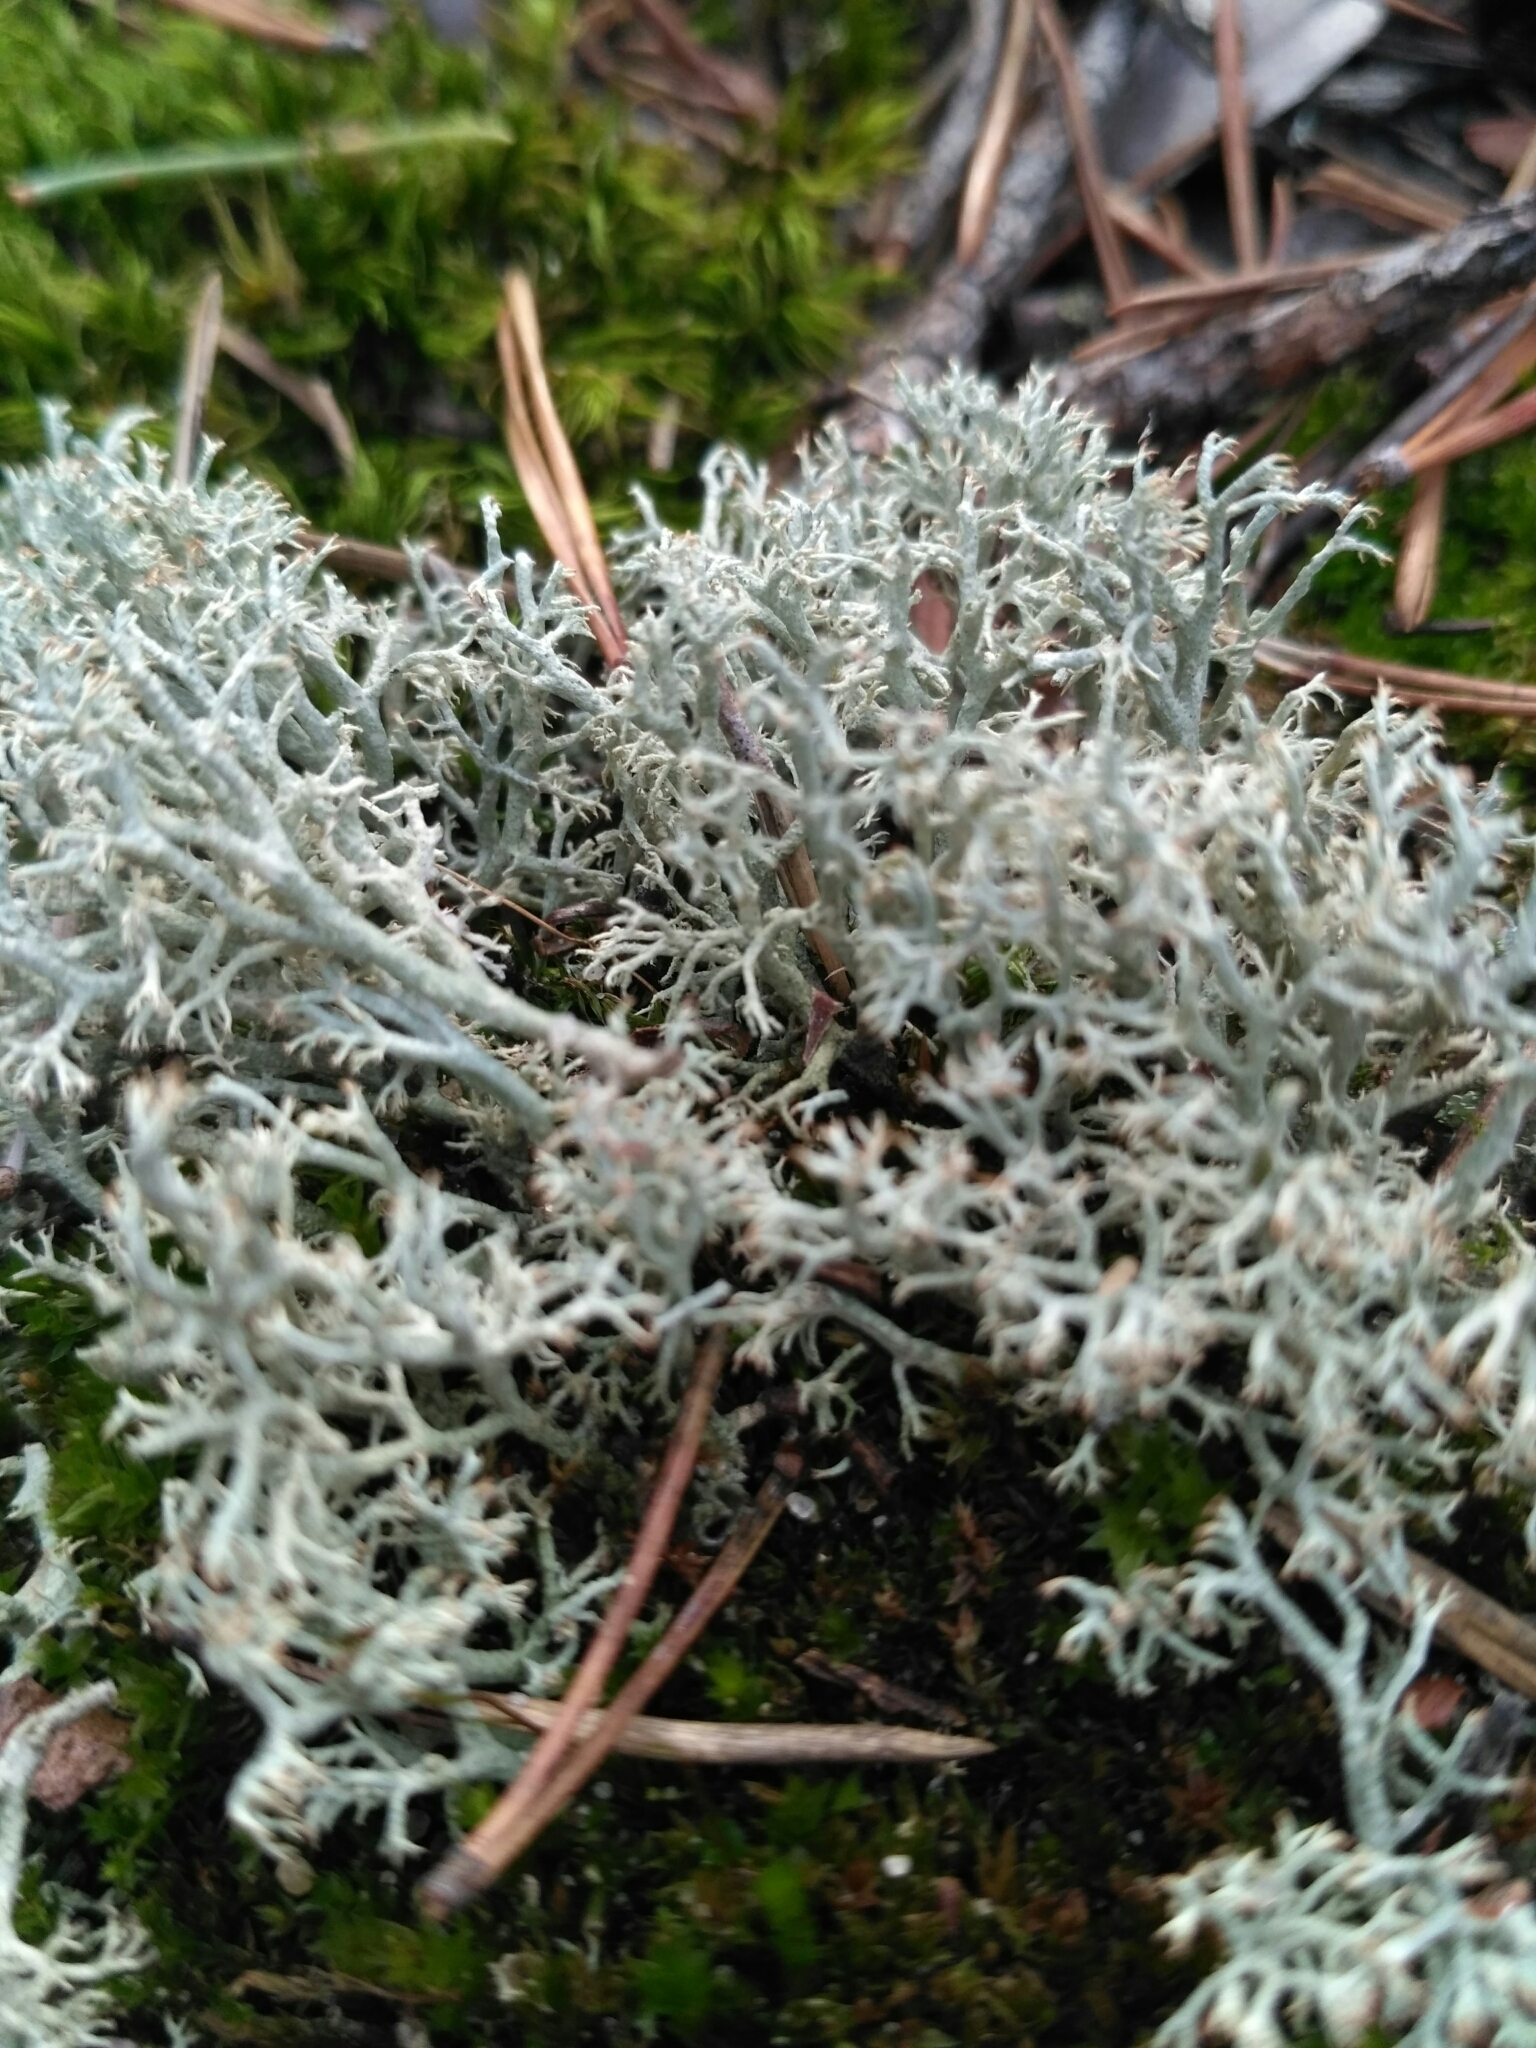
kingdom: Fungi
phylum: Ascomycota
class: Lecanoromycetes
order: Lecanorales
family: Cladoniaceae
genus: Cladonia
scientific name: Cladonia rangiferina
